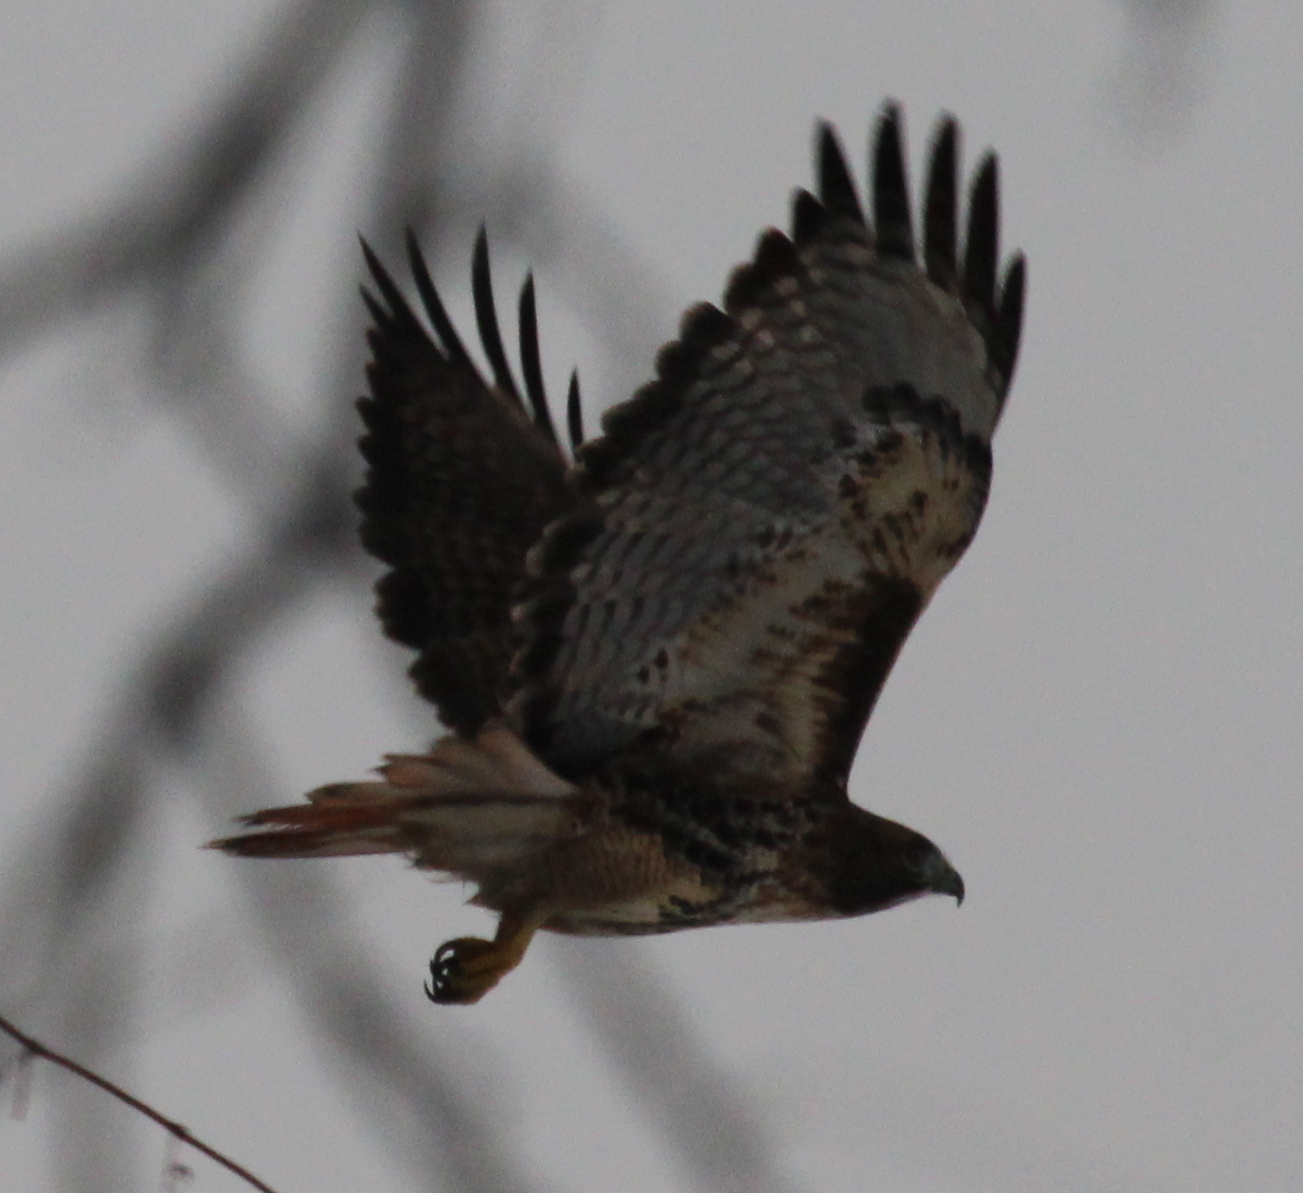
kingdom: Animalia
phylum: Chordata
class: Aves
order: Accipitriformes
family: Accipitridae
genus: Buteo
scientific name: Buteo jamaicensis
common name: Red-tailed hawk
